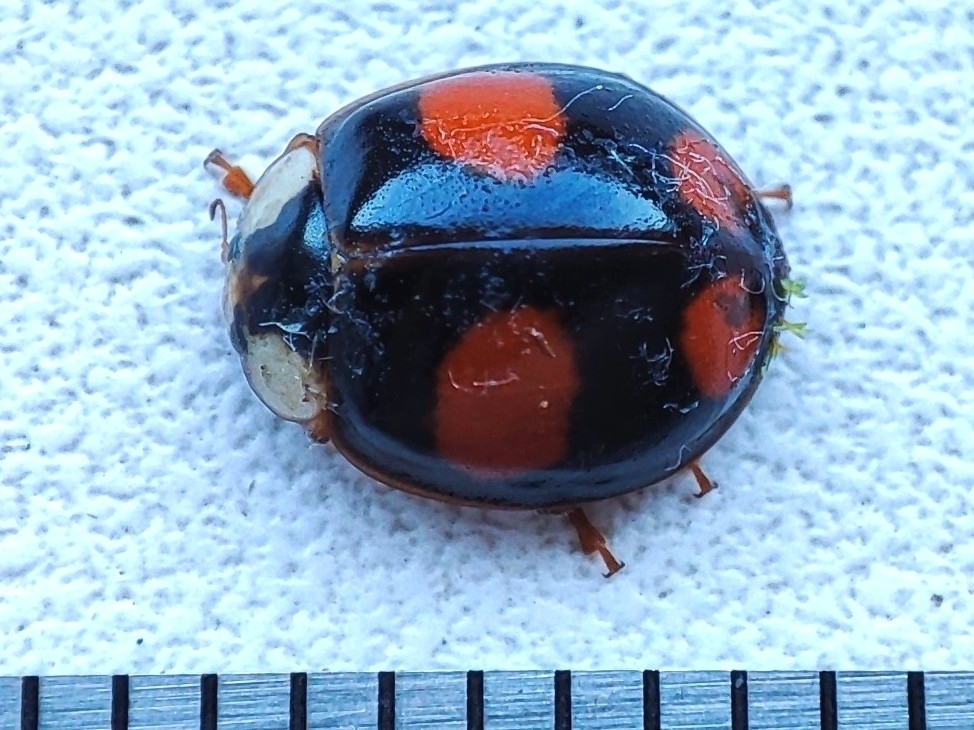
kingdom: Animalia
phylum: Arthropoda
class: Insecta
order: Coleoptera
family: Coccinellidae
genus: Harmonia
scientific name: Harmonia axyridis
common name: Harlequin ladybird
